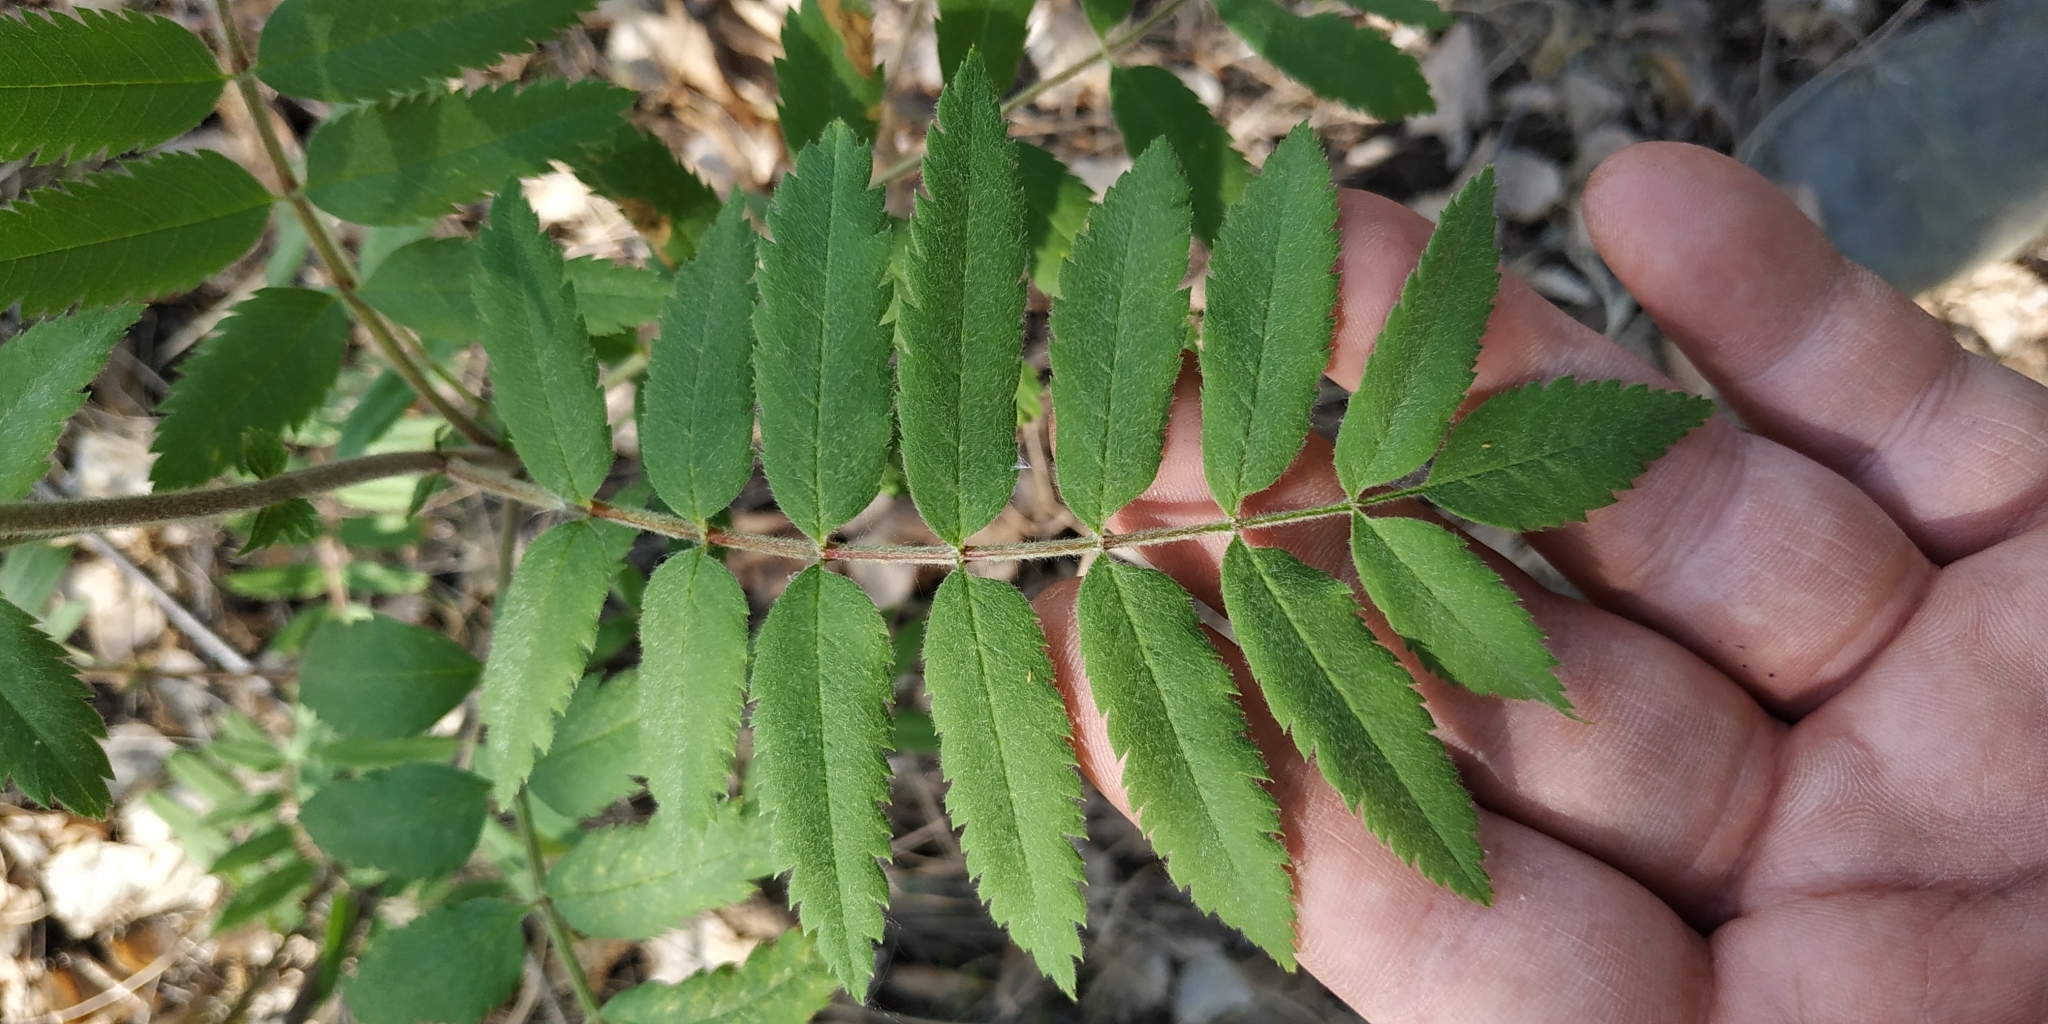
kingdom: Plantae
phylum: Tracheophyta
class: Magnoliopsida
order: Rosales
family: Rosaceae
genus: Sorbus
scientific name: Sorbus aucuparia
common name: Rowan
